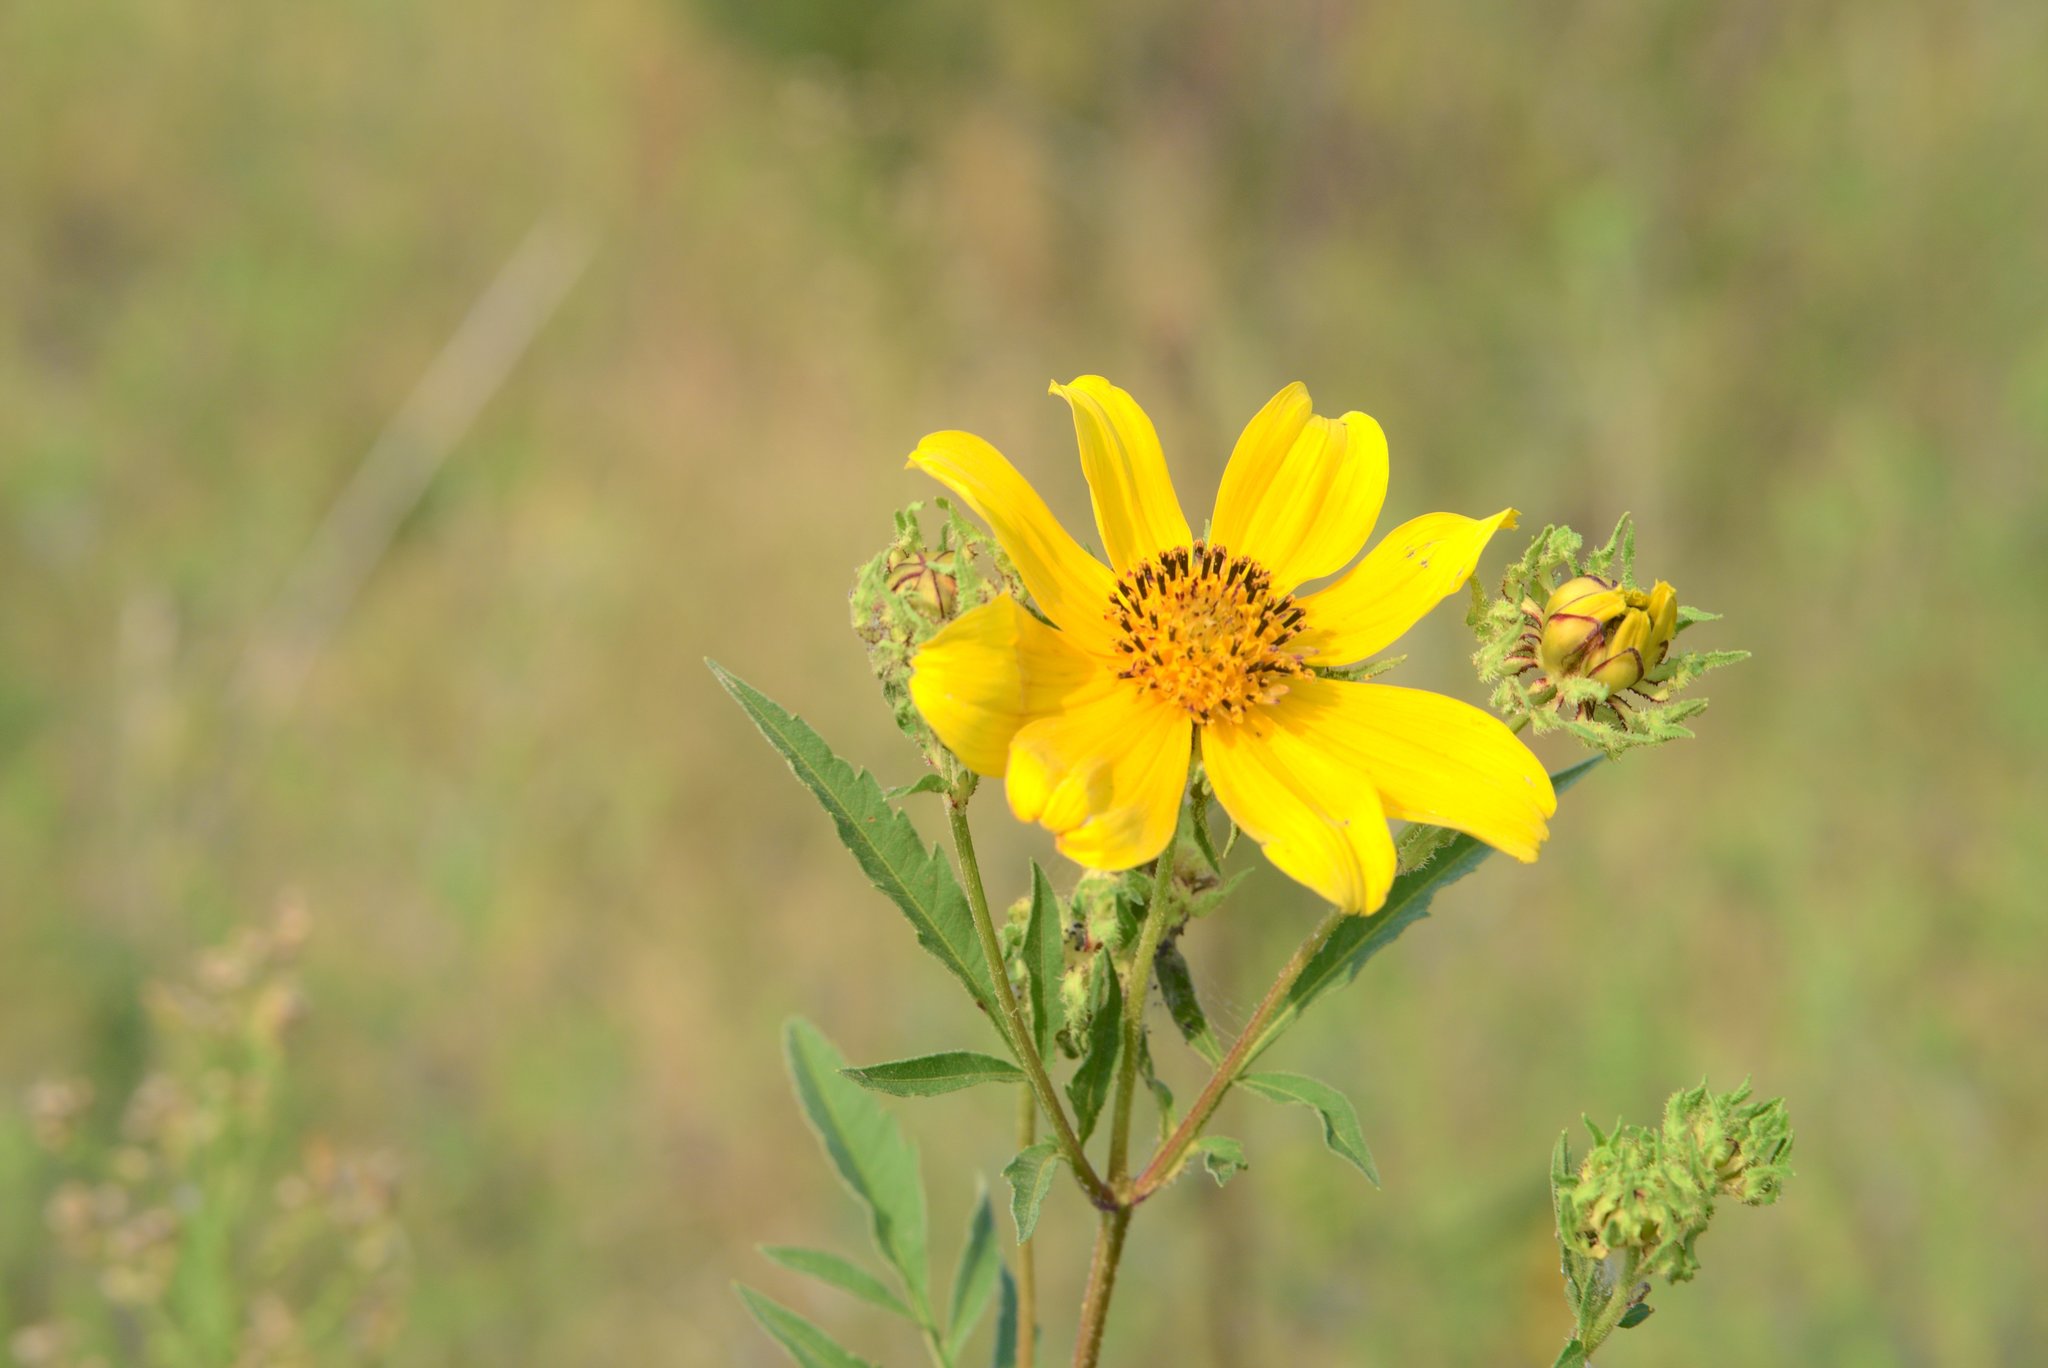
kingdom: Plantae
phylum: Tracheophyta
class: Magnoliopsida
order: Asterales
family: Asteraceae
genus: Bidens
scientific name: Bidens polylepis
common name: Awnless beggarticks
